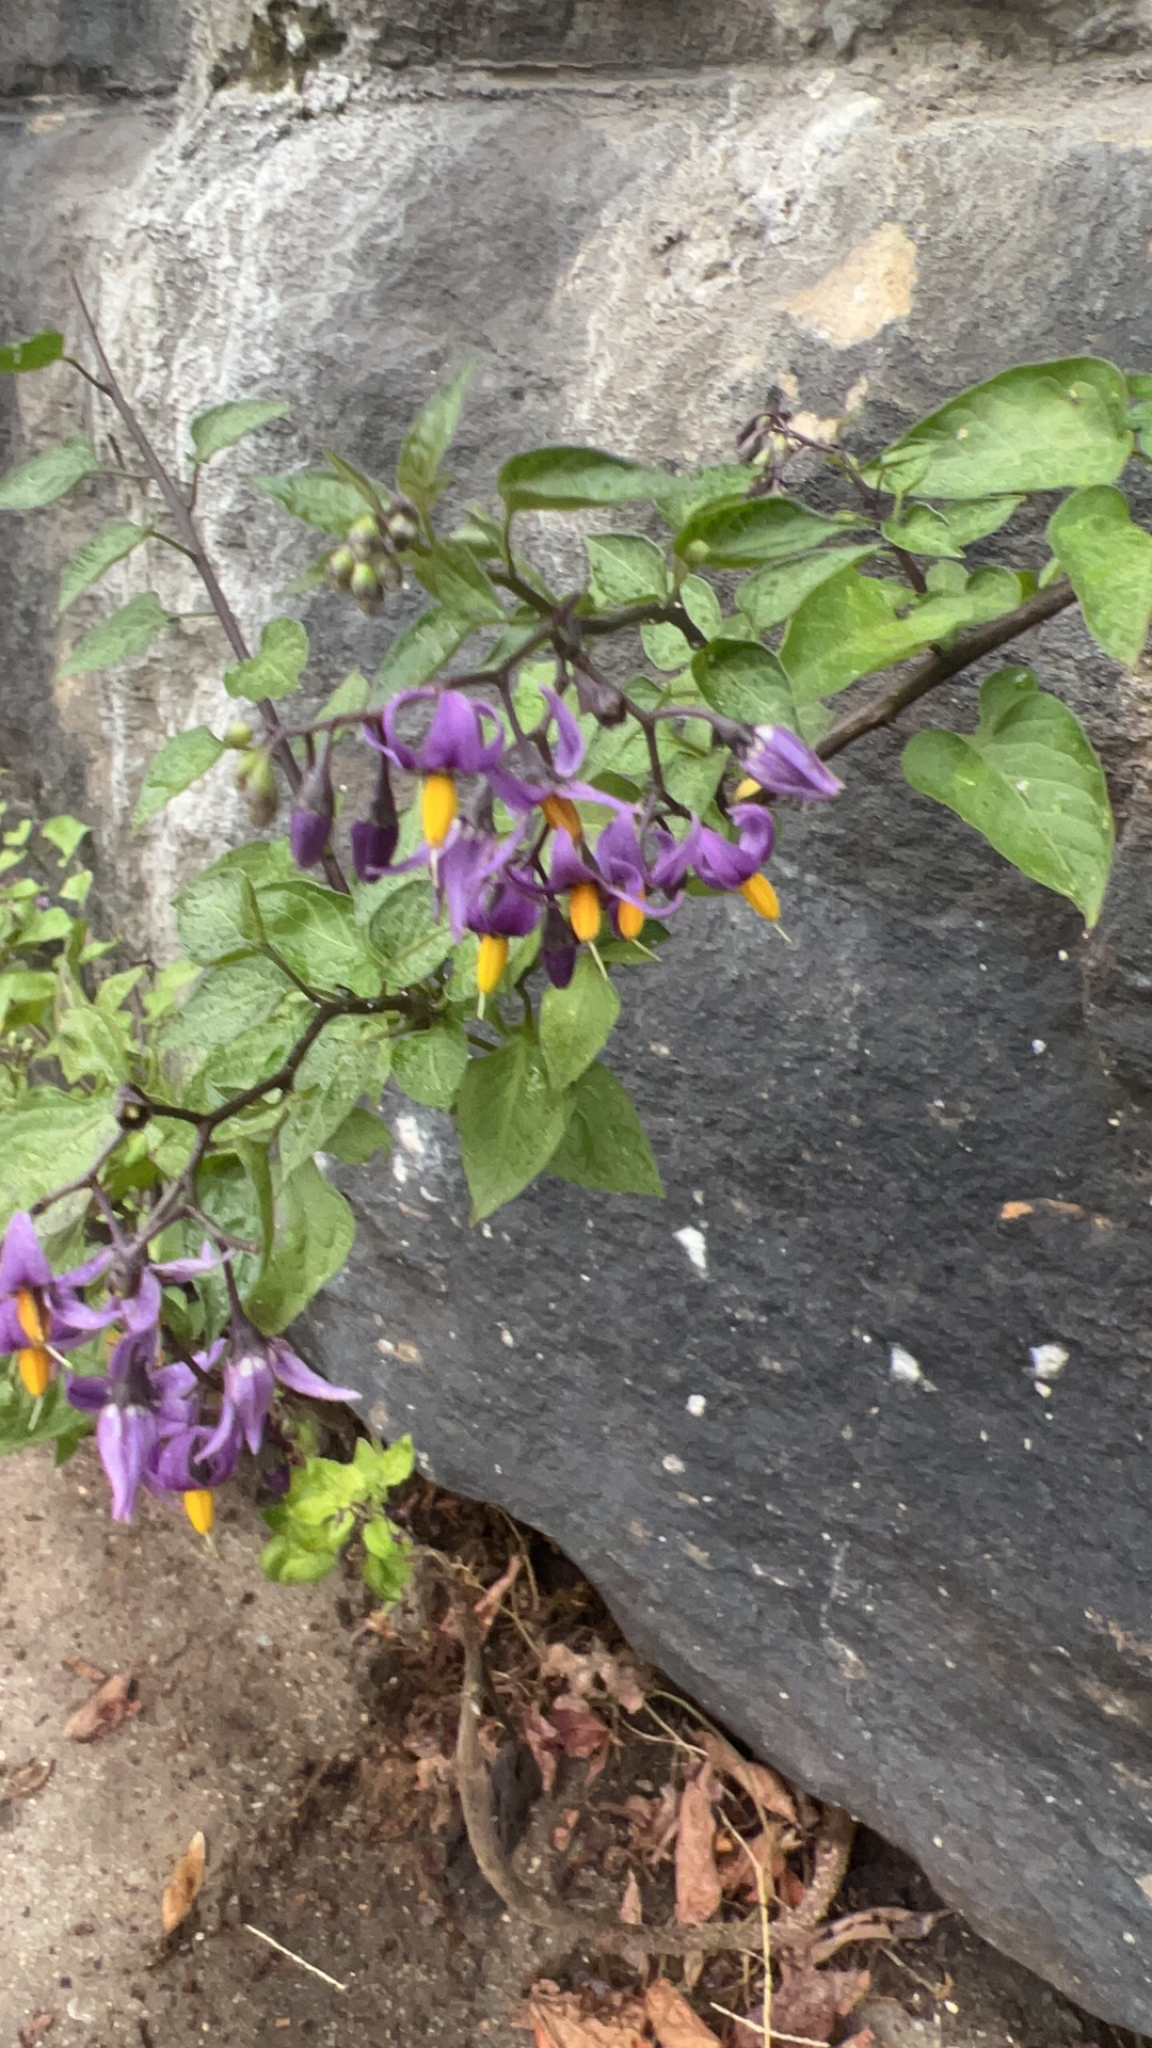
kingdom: Plantae
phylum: Tracheophyta
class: Magnoliopsida
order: Solanales
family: Solanaceae
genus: Solanum
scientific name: Solanum dulcamara
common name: Climbing nightshade
